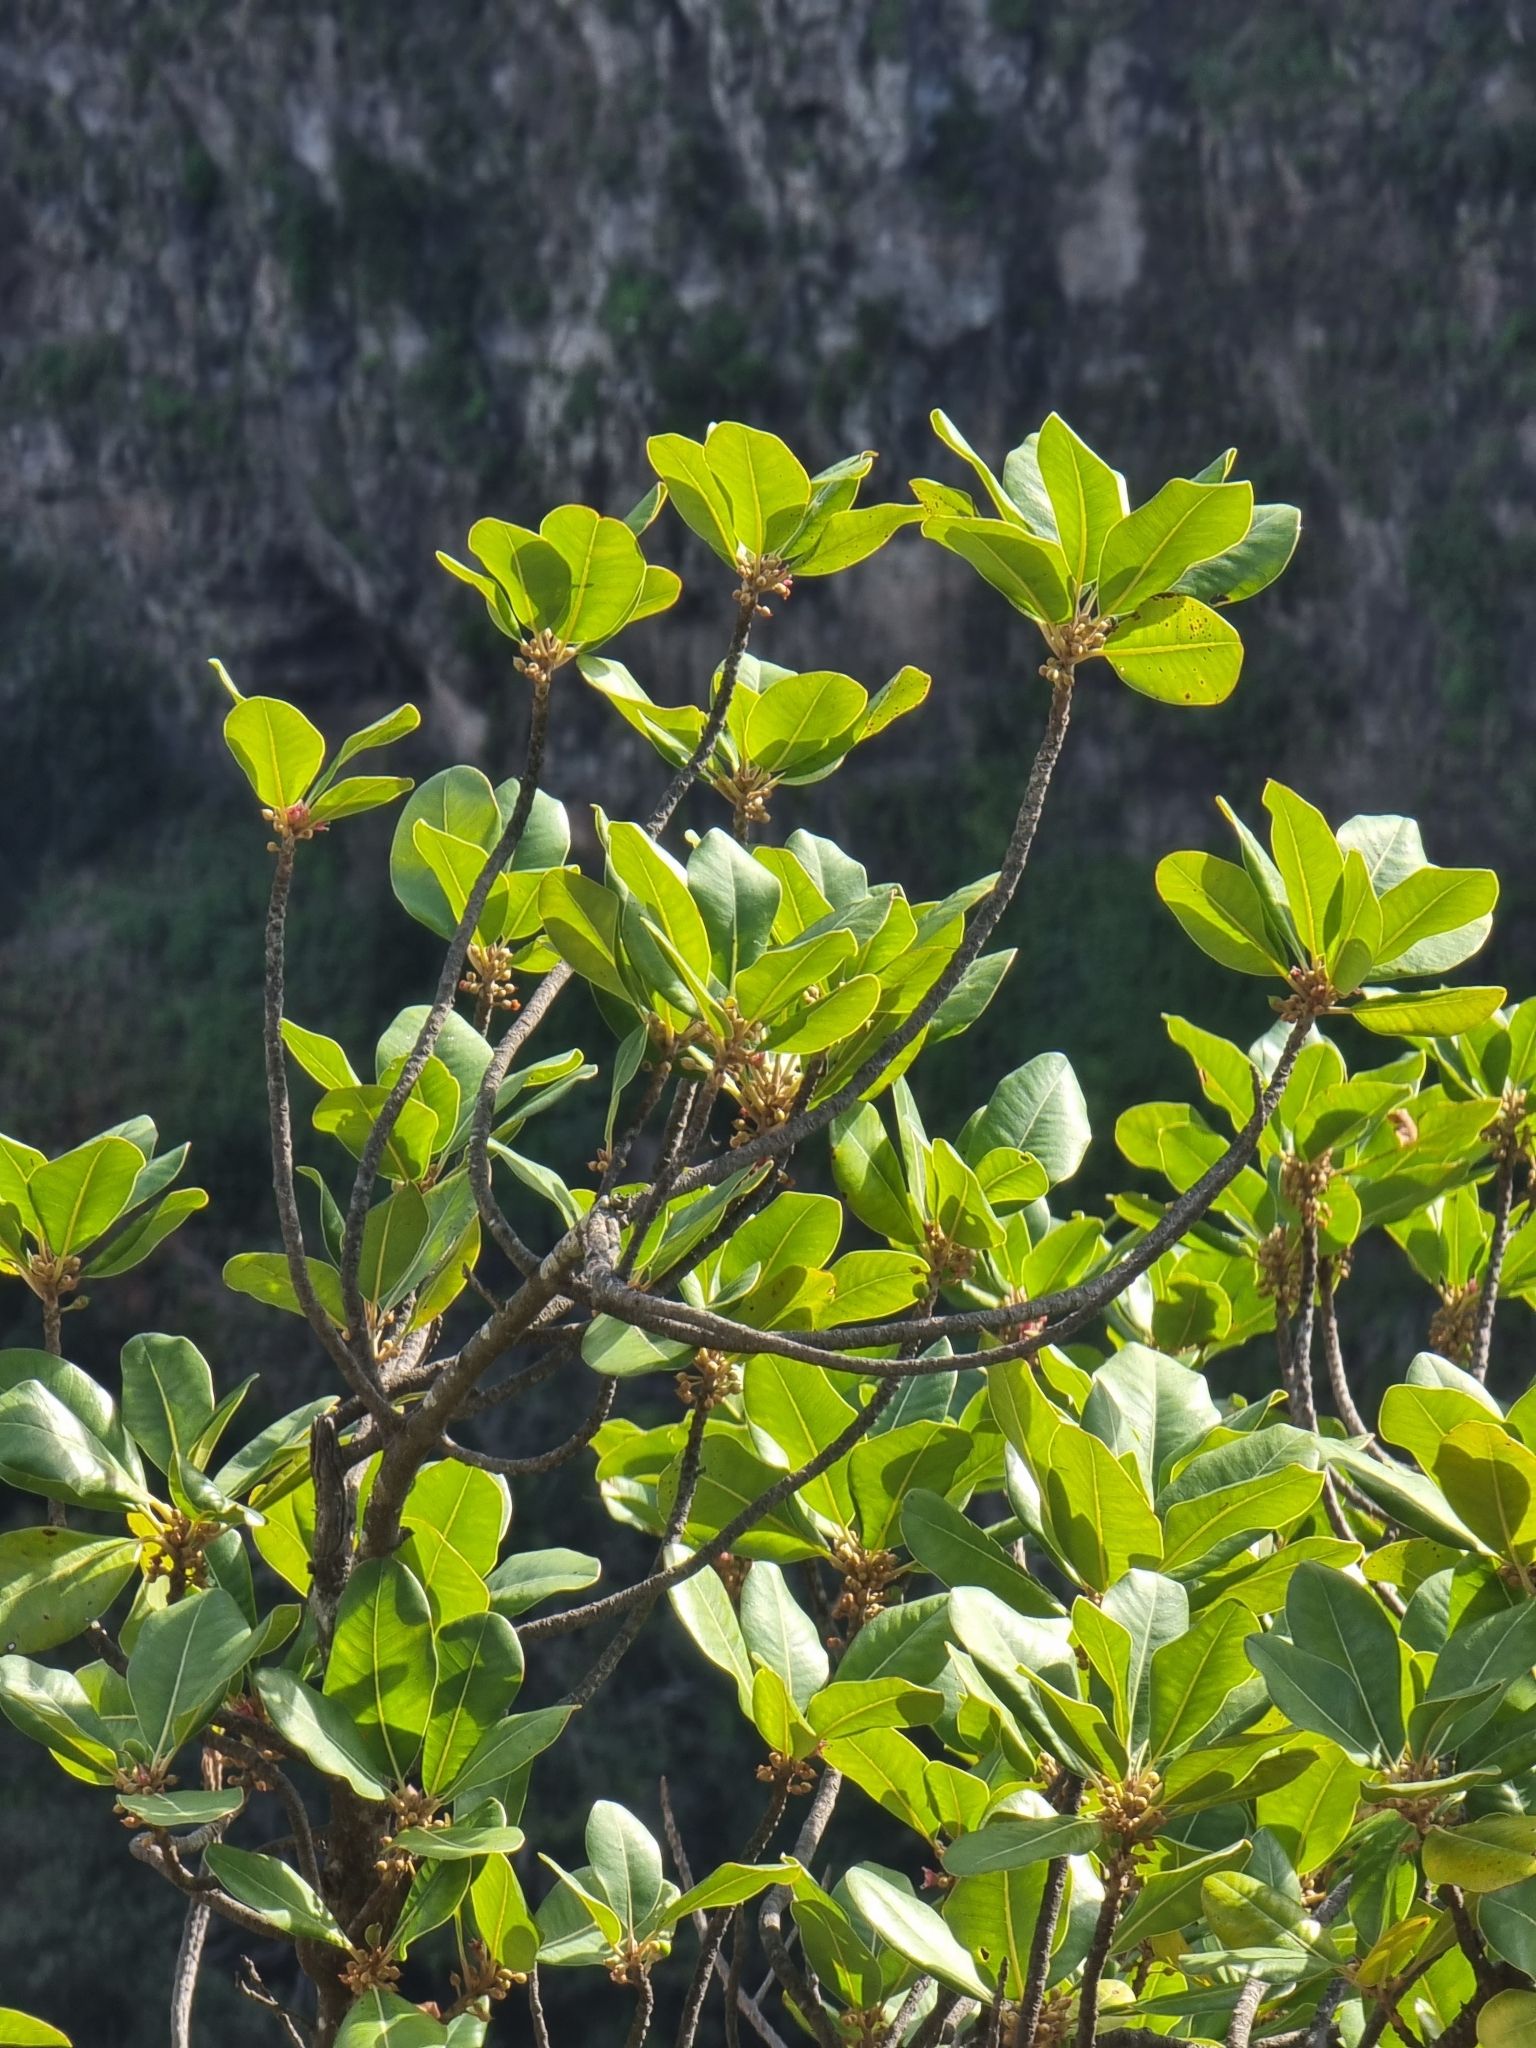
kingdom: Plantae
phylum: Tracheophyta
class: Magnoliopsida
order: Ericales
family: Sapotaceae
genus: Sideroxylon
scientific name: Sideroxylon mirmulans
